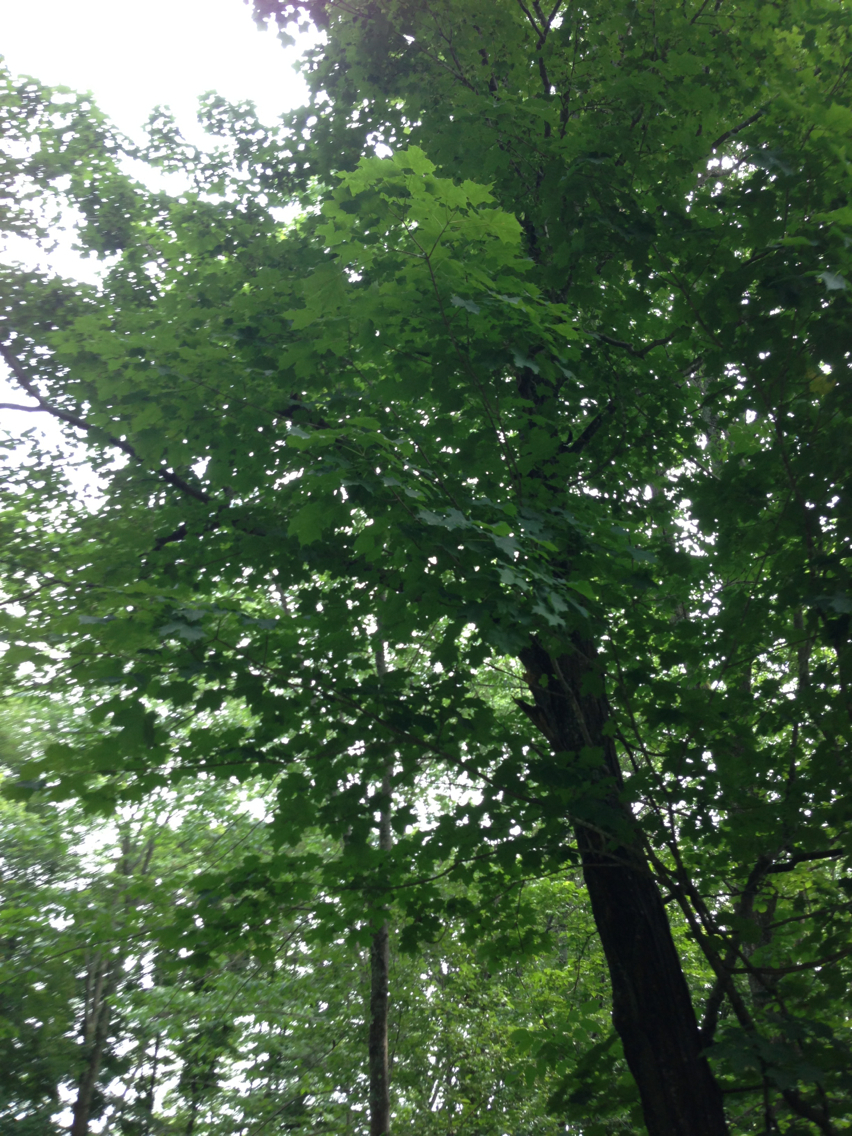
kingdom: Plantae
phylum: Tracheophyta
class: Magnoliopsida
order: Sapindales
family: Sapindaceae
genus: Acer
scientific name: Acer saccharum
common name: Sugar maple
